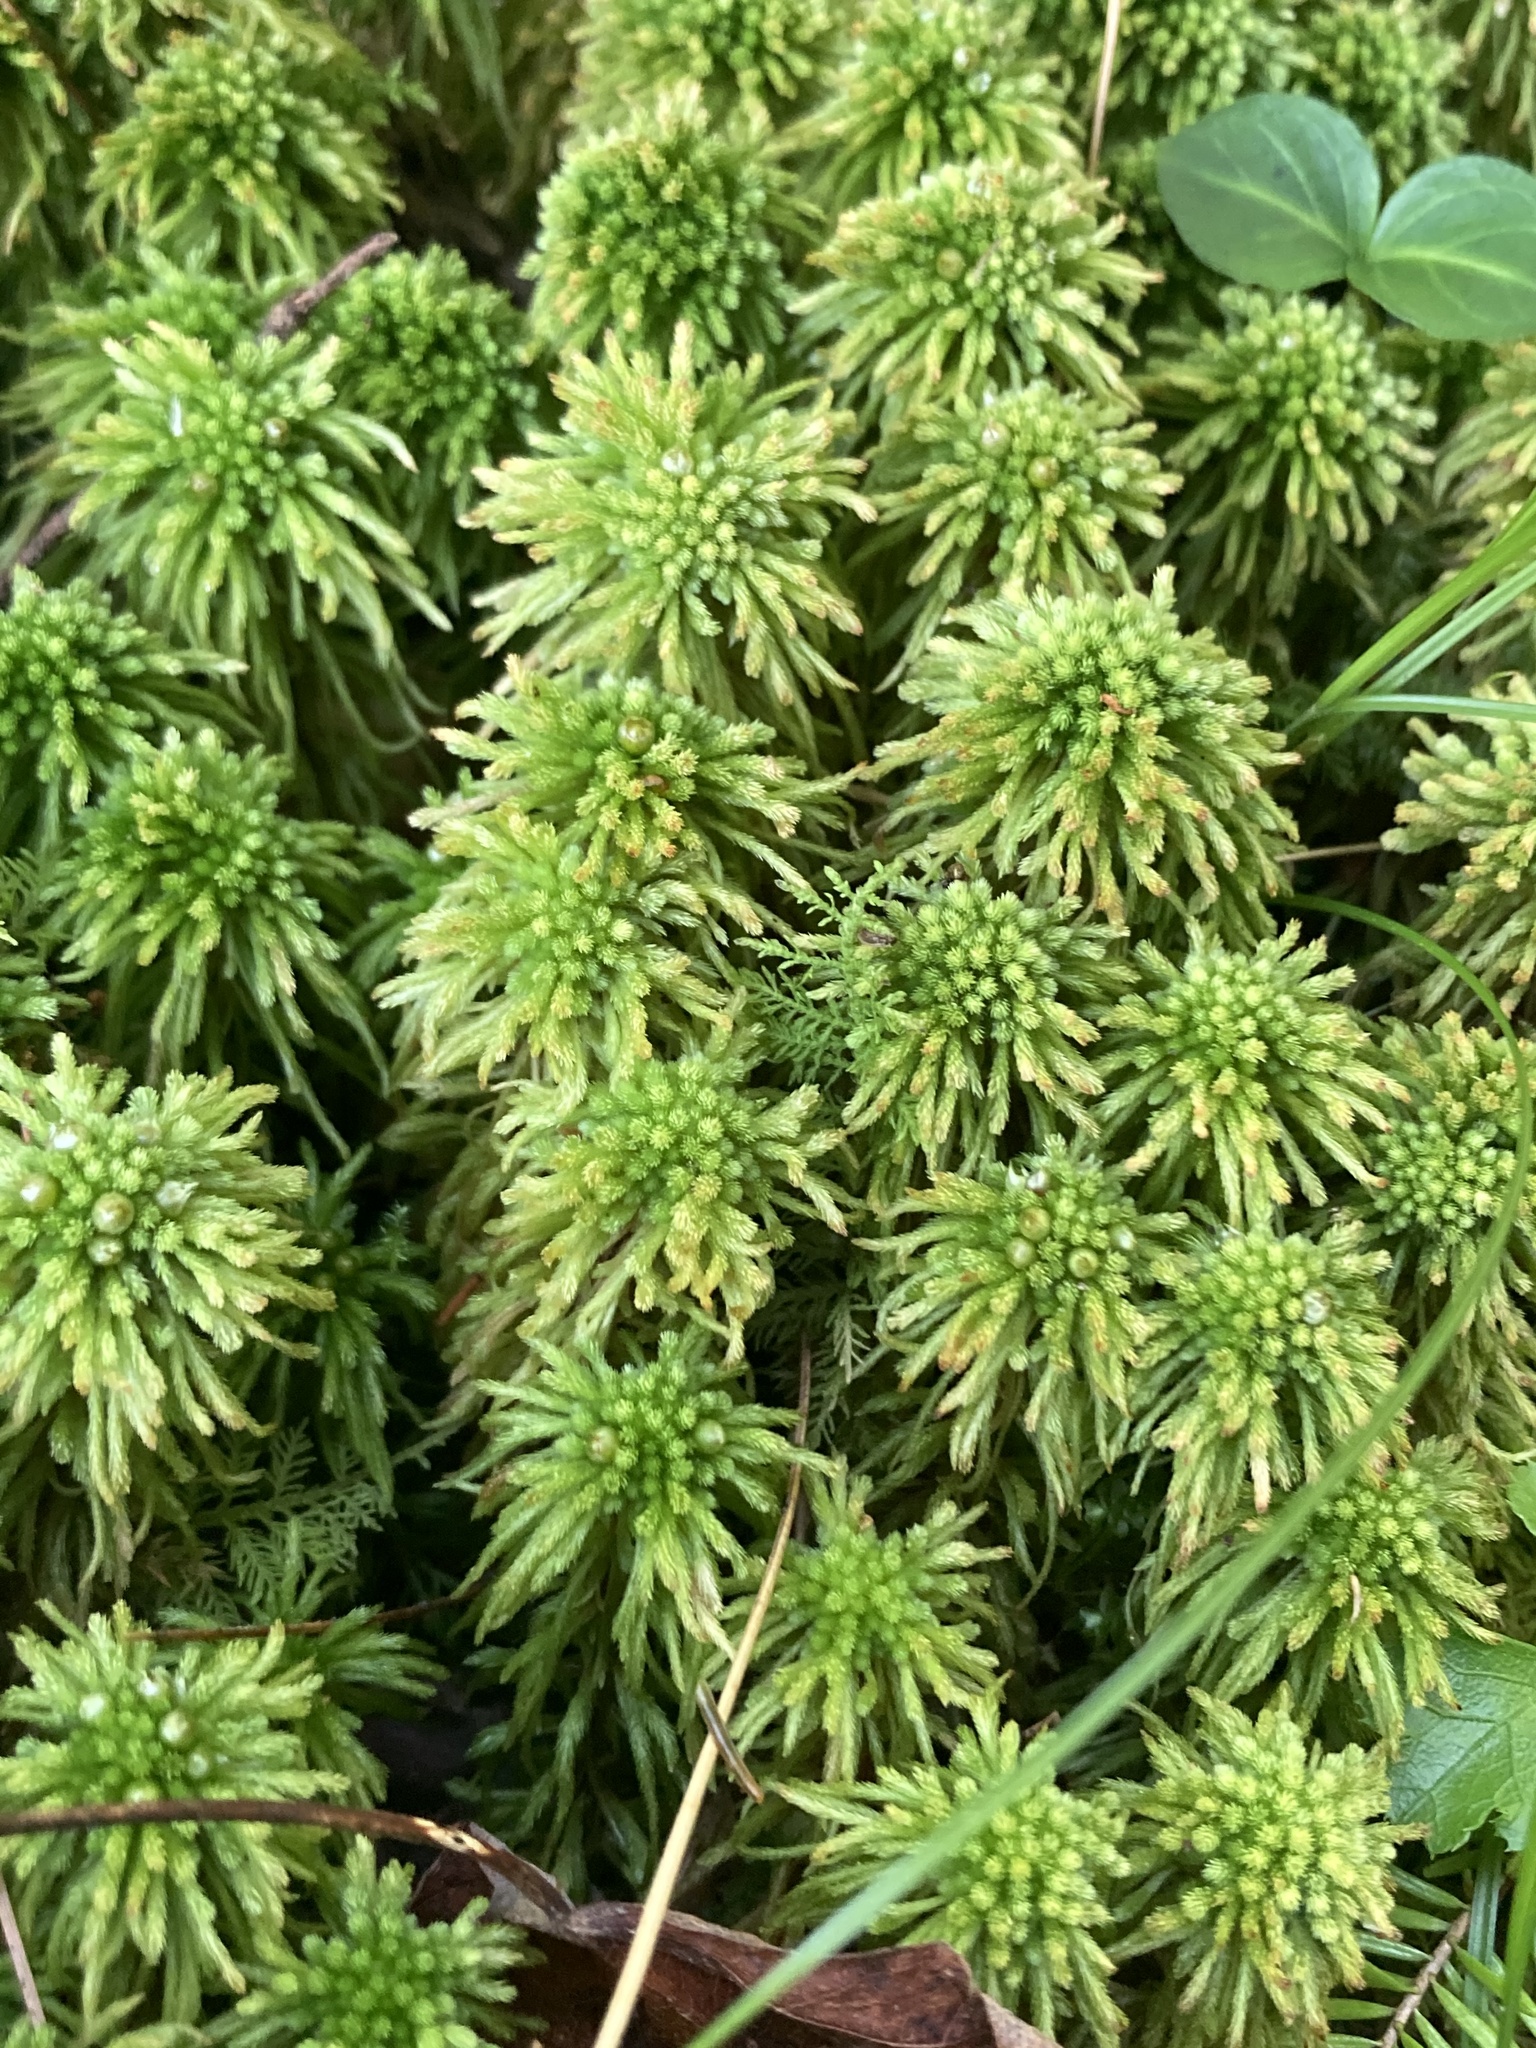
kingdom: Plantae
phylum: Bryophyta
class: Sphagnopsida
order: Sphagnales
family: Sphagnaceae
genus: Sphagnum
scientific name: Sphagnum wulfianum
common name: Wulf's peat moss
